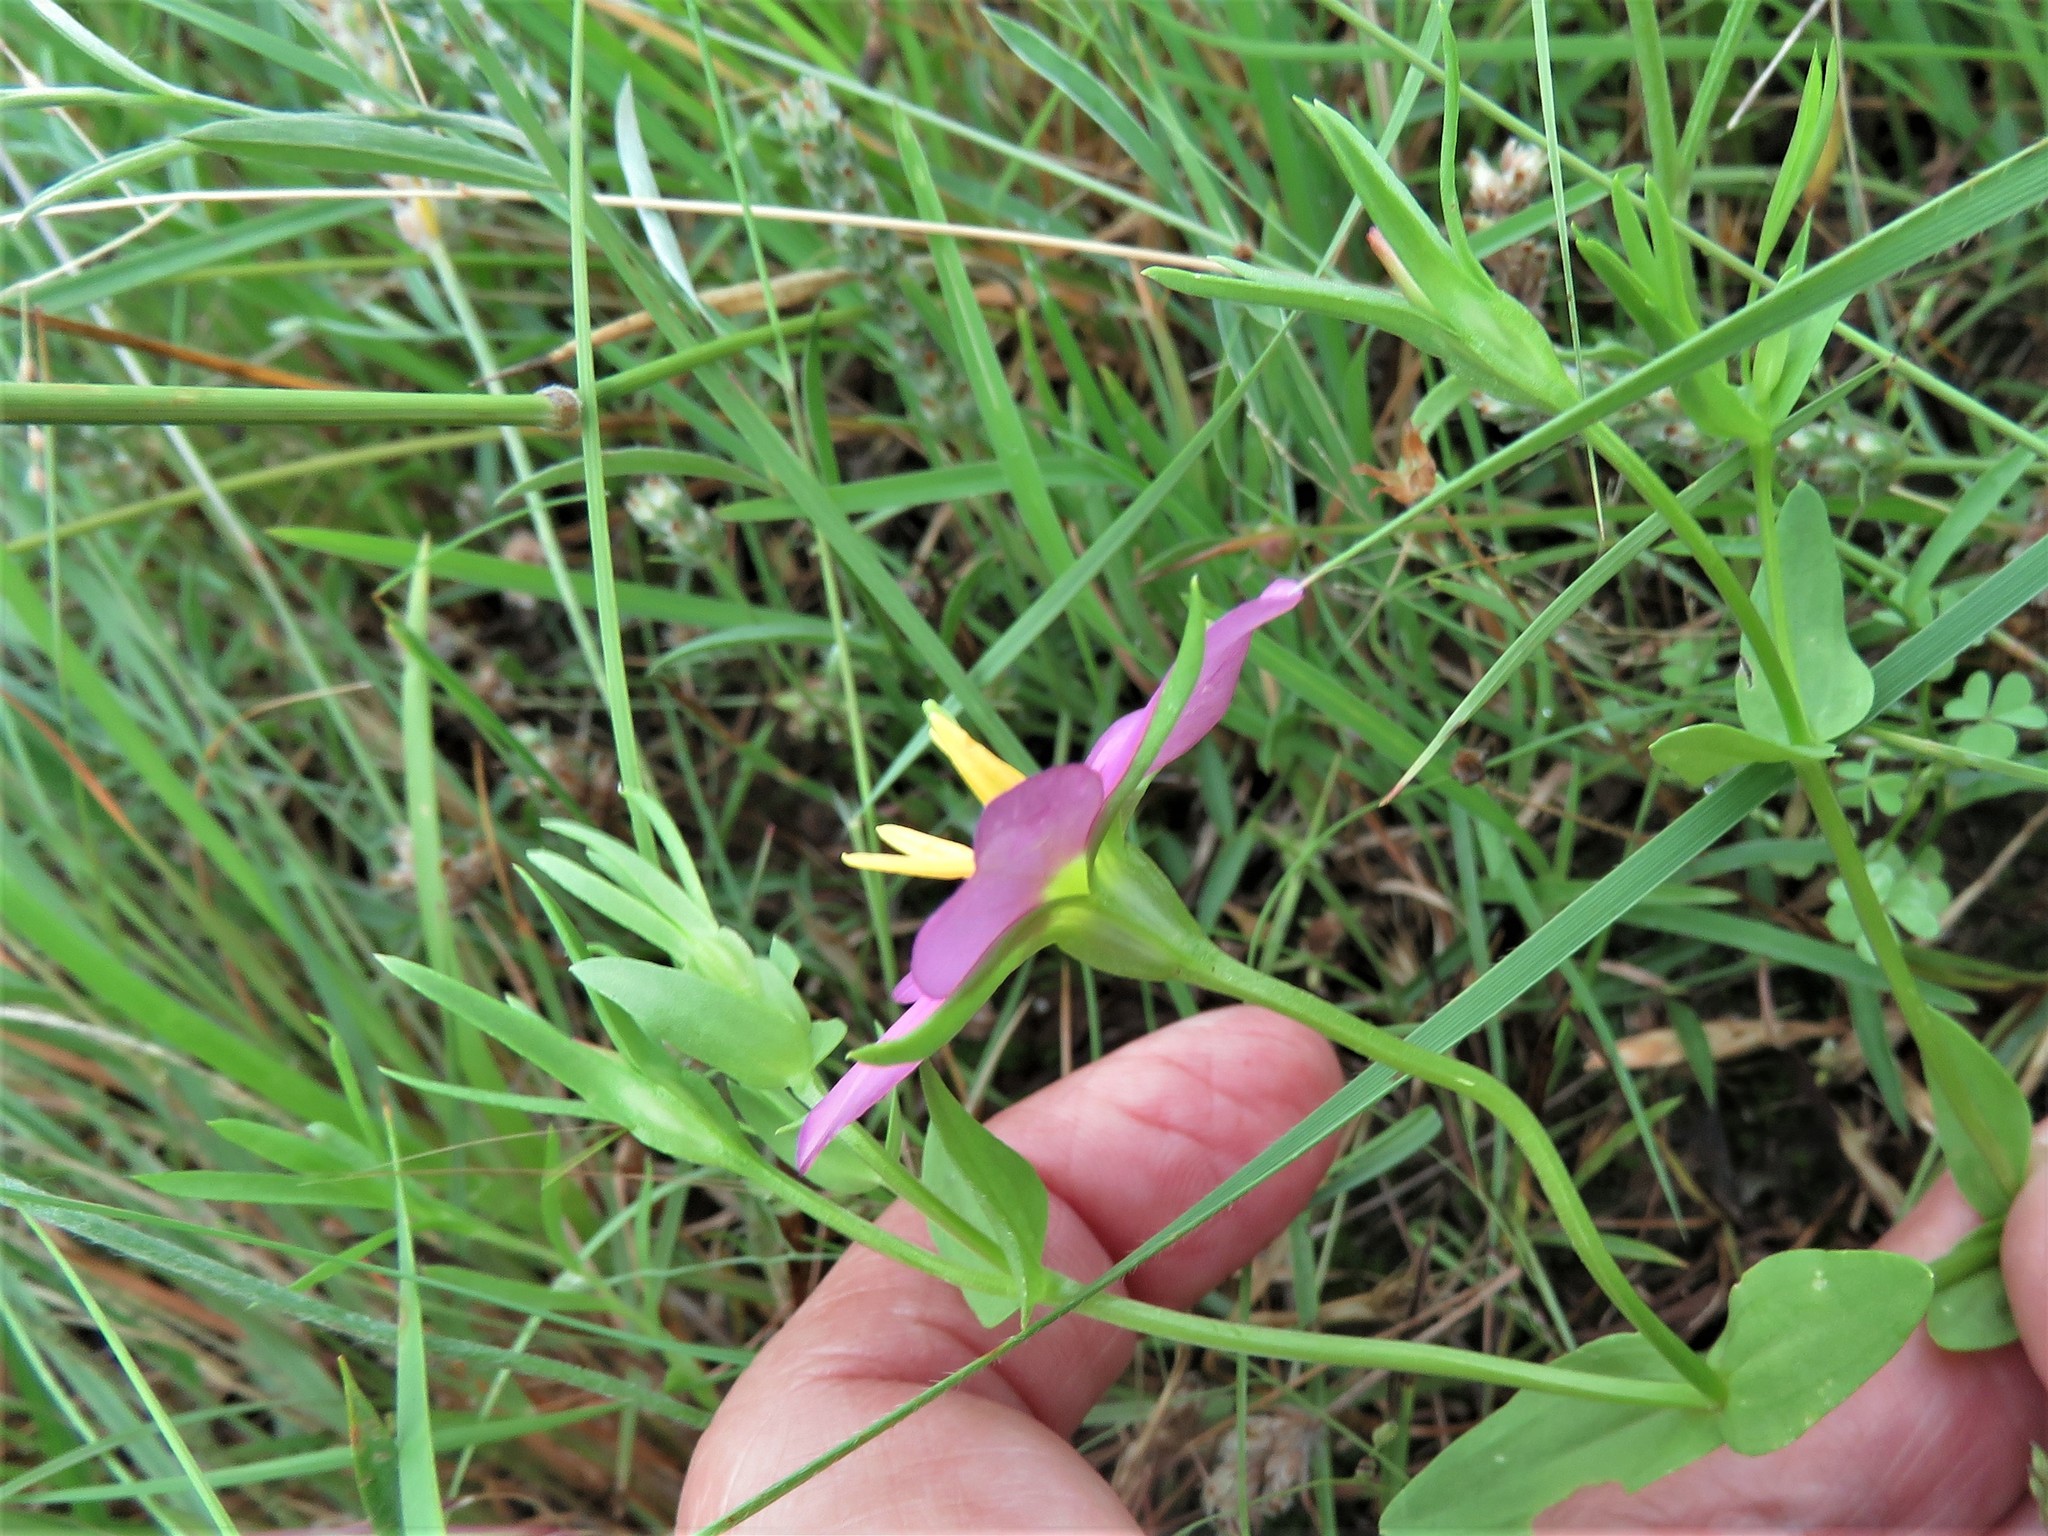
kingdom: Plantae
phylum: Tracheophyta
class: Magnoliopsida
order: Gentianales
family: Gentianaceae
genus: Sabatia
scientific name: Sabatia campestris
